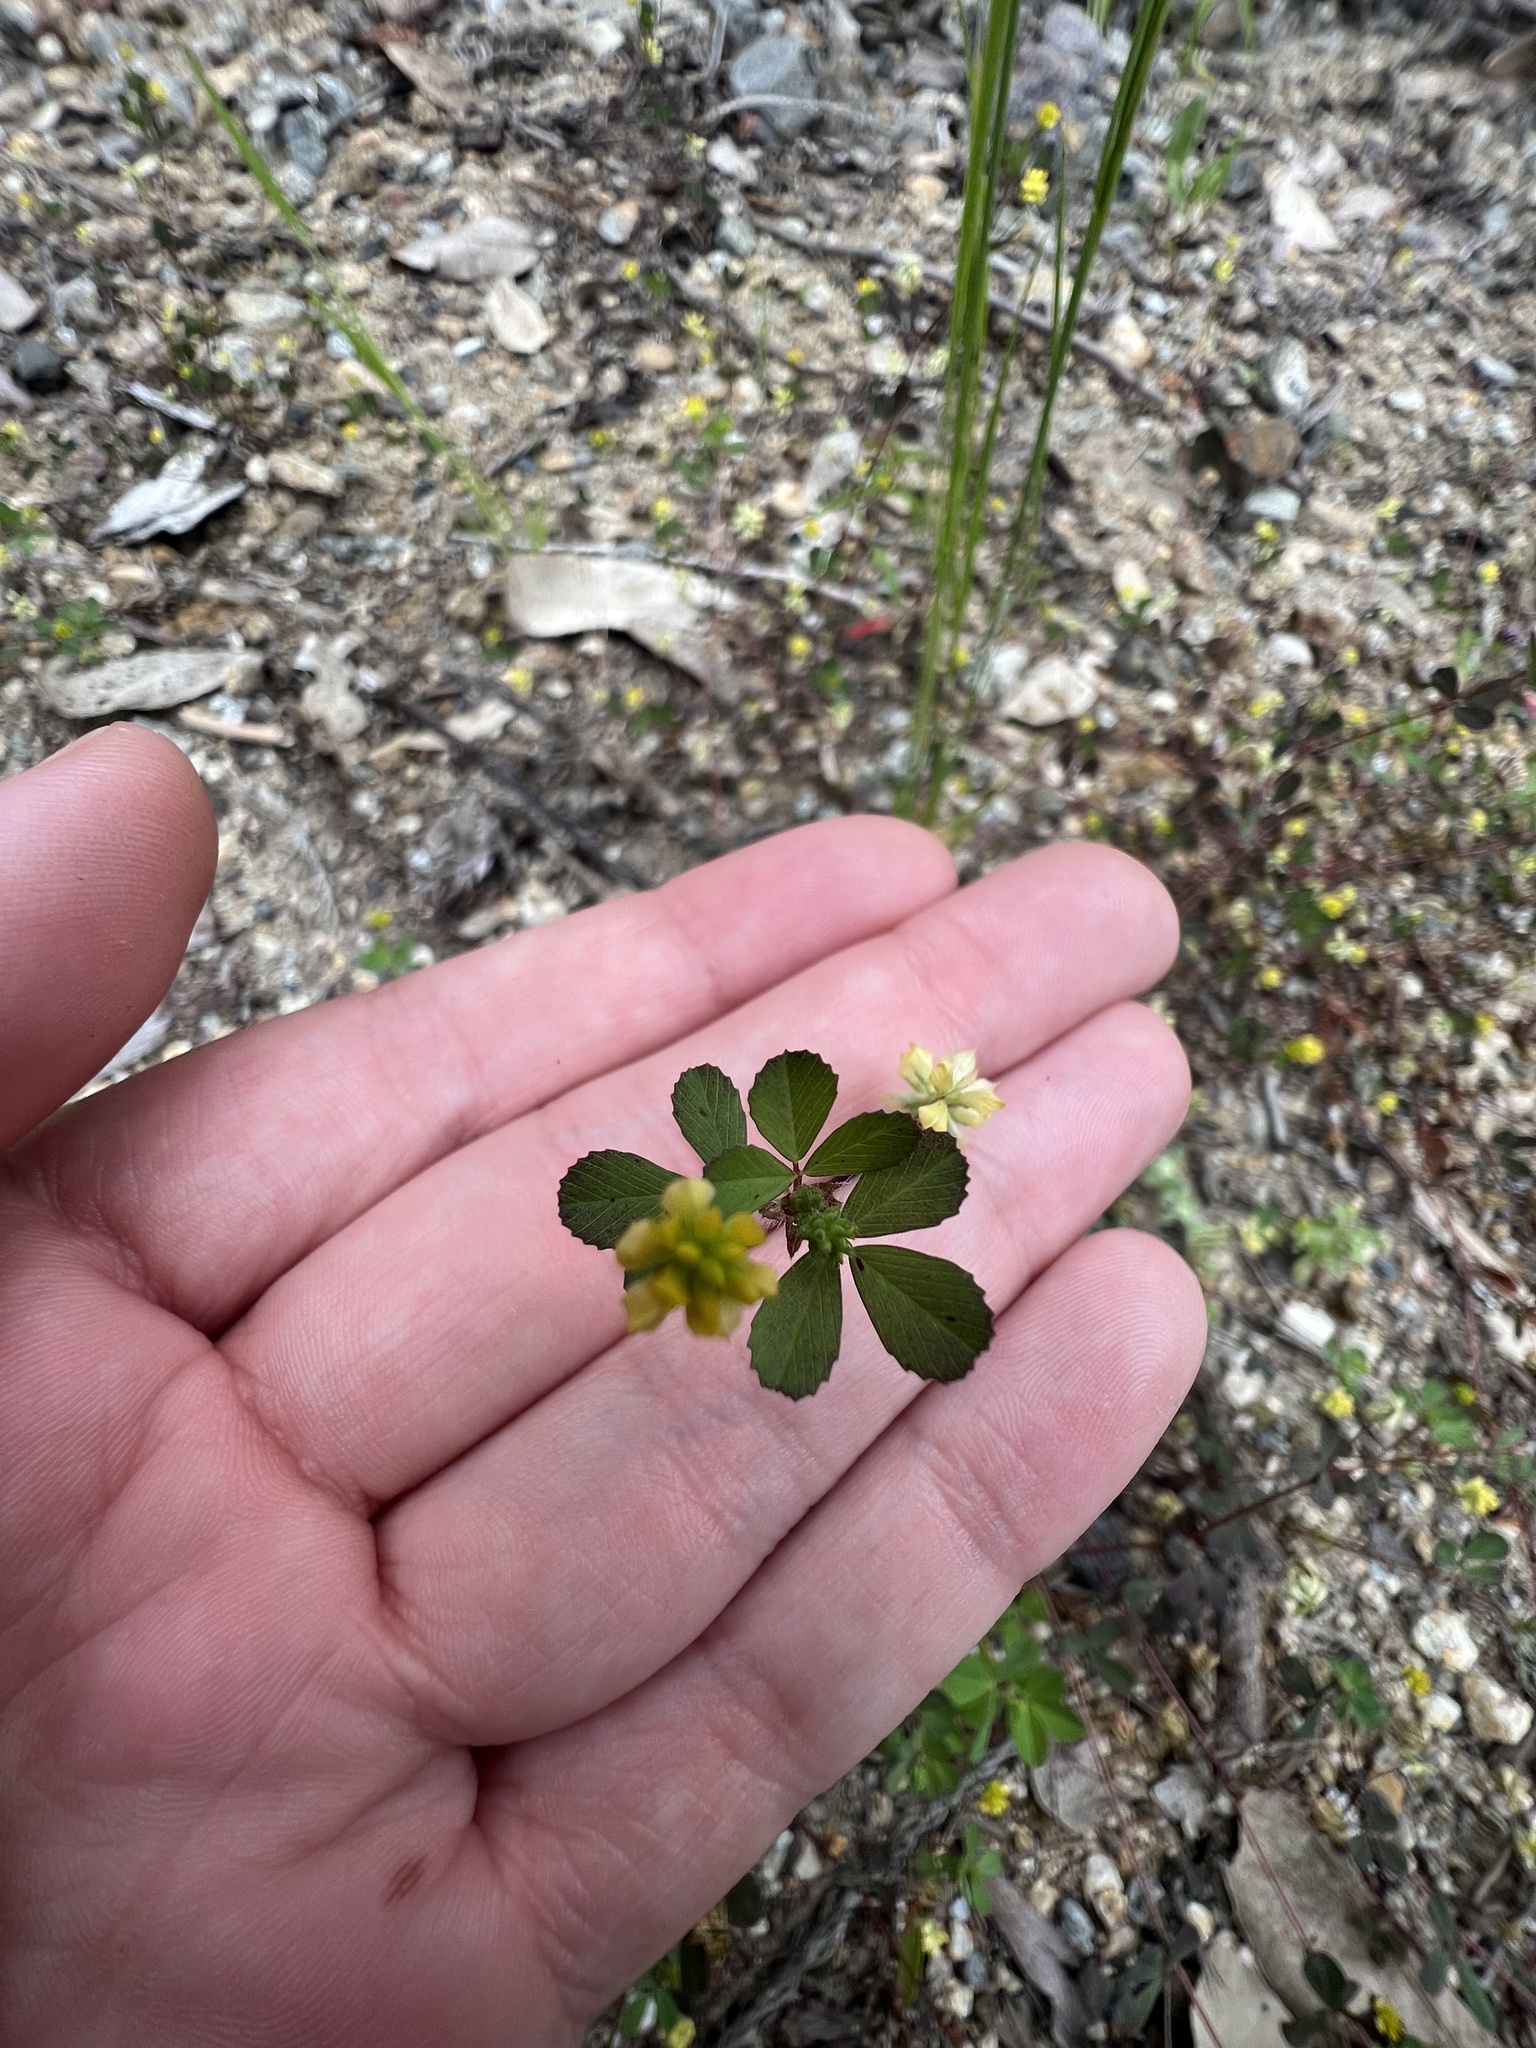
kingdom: Plantae
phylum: Tracheophyta
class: Magnoliopsida
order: Fabales
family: Fabaceae
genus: Trifolium
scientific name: Trifolium dubium
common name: Suckling clover
